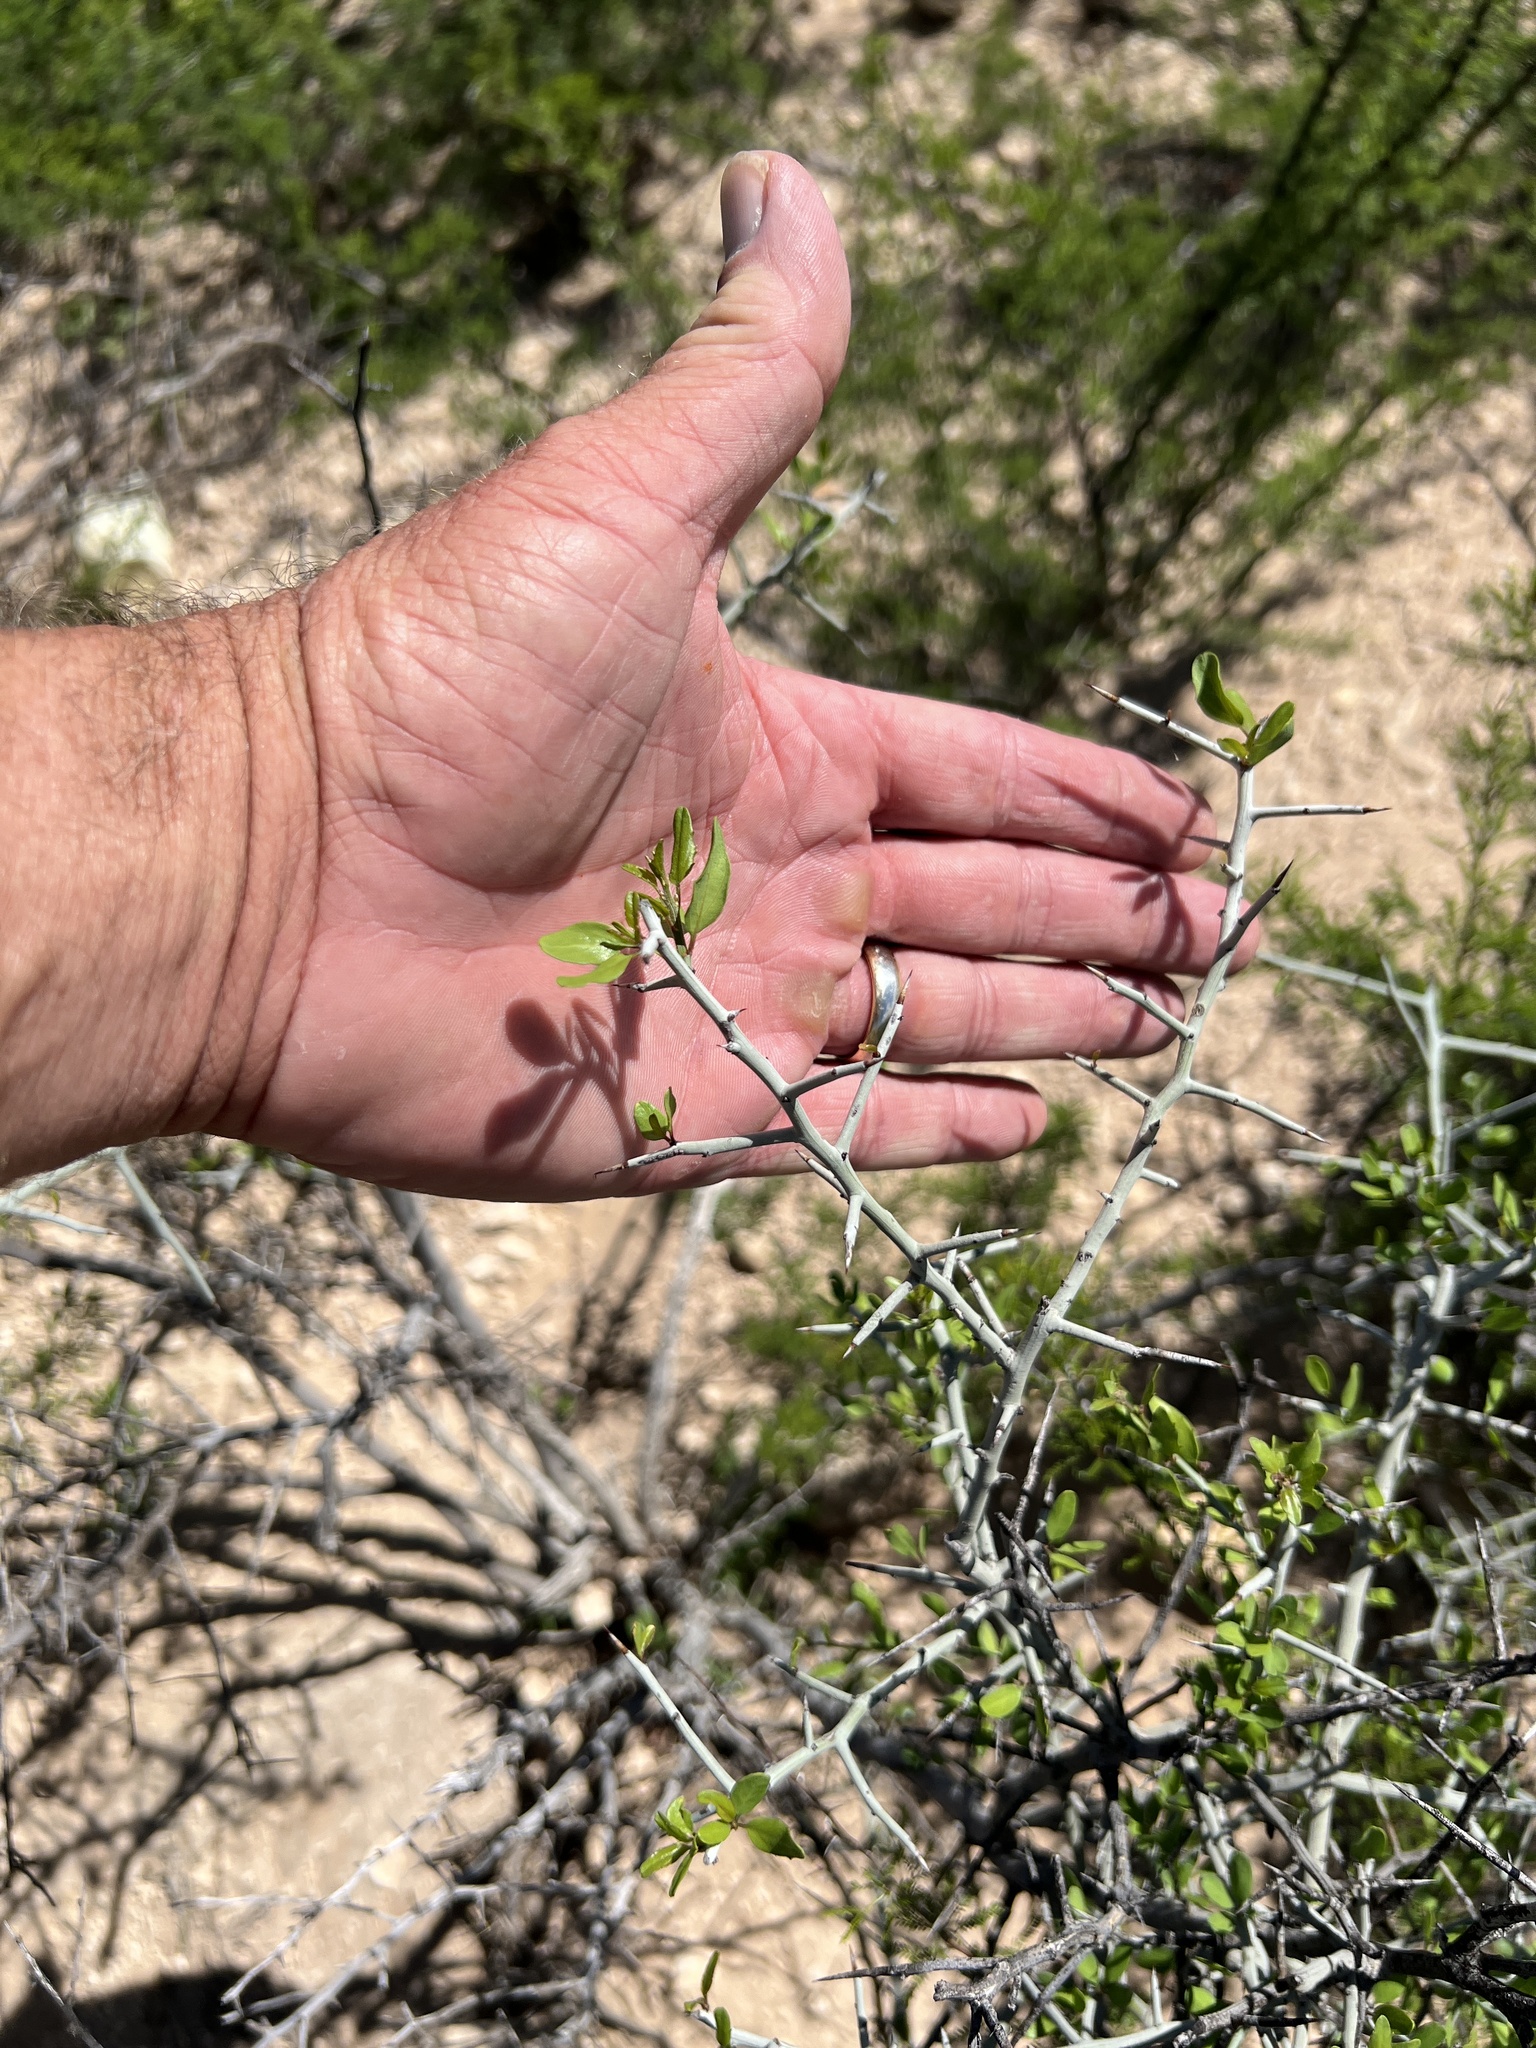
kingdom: Plantae
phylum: Tracheophyta
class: Magnoliopsida
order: Rosales
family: Rhamnaceae
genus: Sarcomphalus
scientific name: Sarcomphalus obtusifolius
